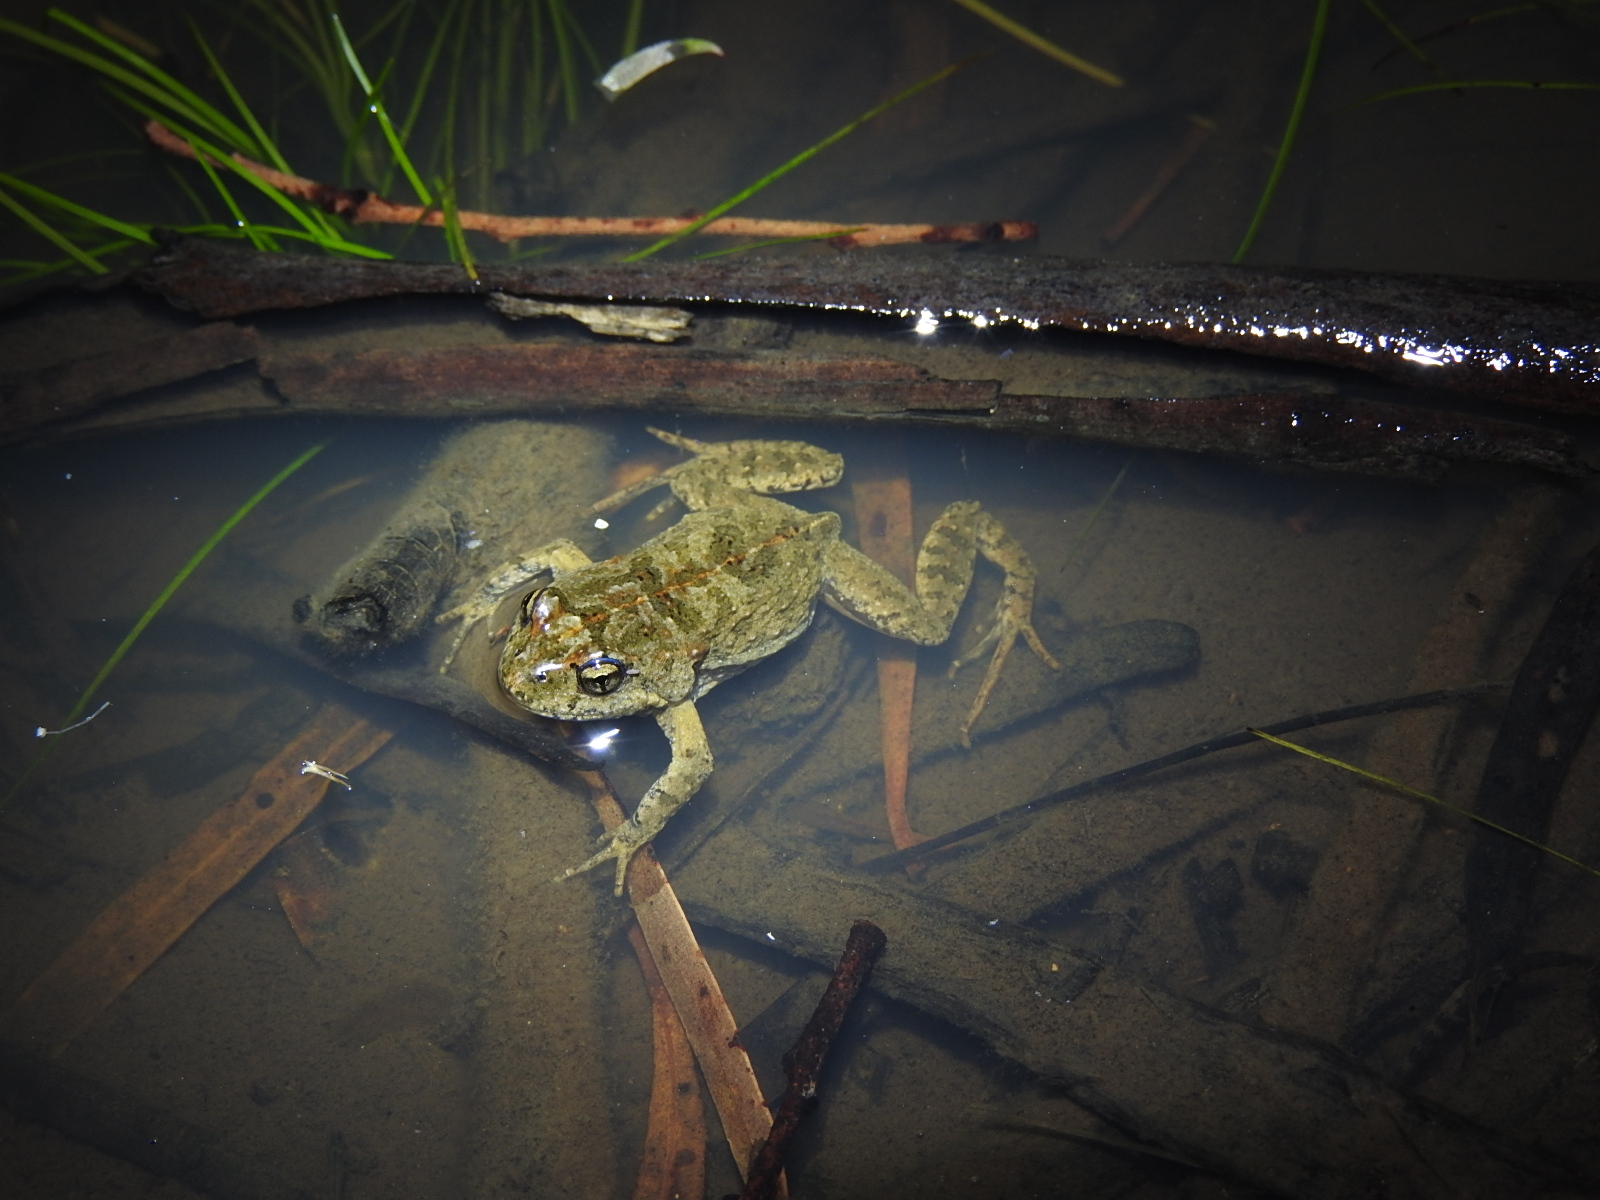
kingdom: Animalia
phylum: Chordata
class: Amphibia
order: Anura
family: Myobatrachidae
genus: Crinia
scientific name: Crinia signifera
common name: Brown froglet
